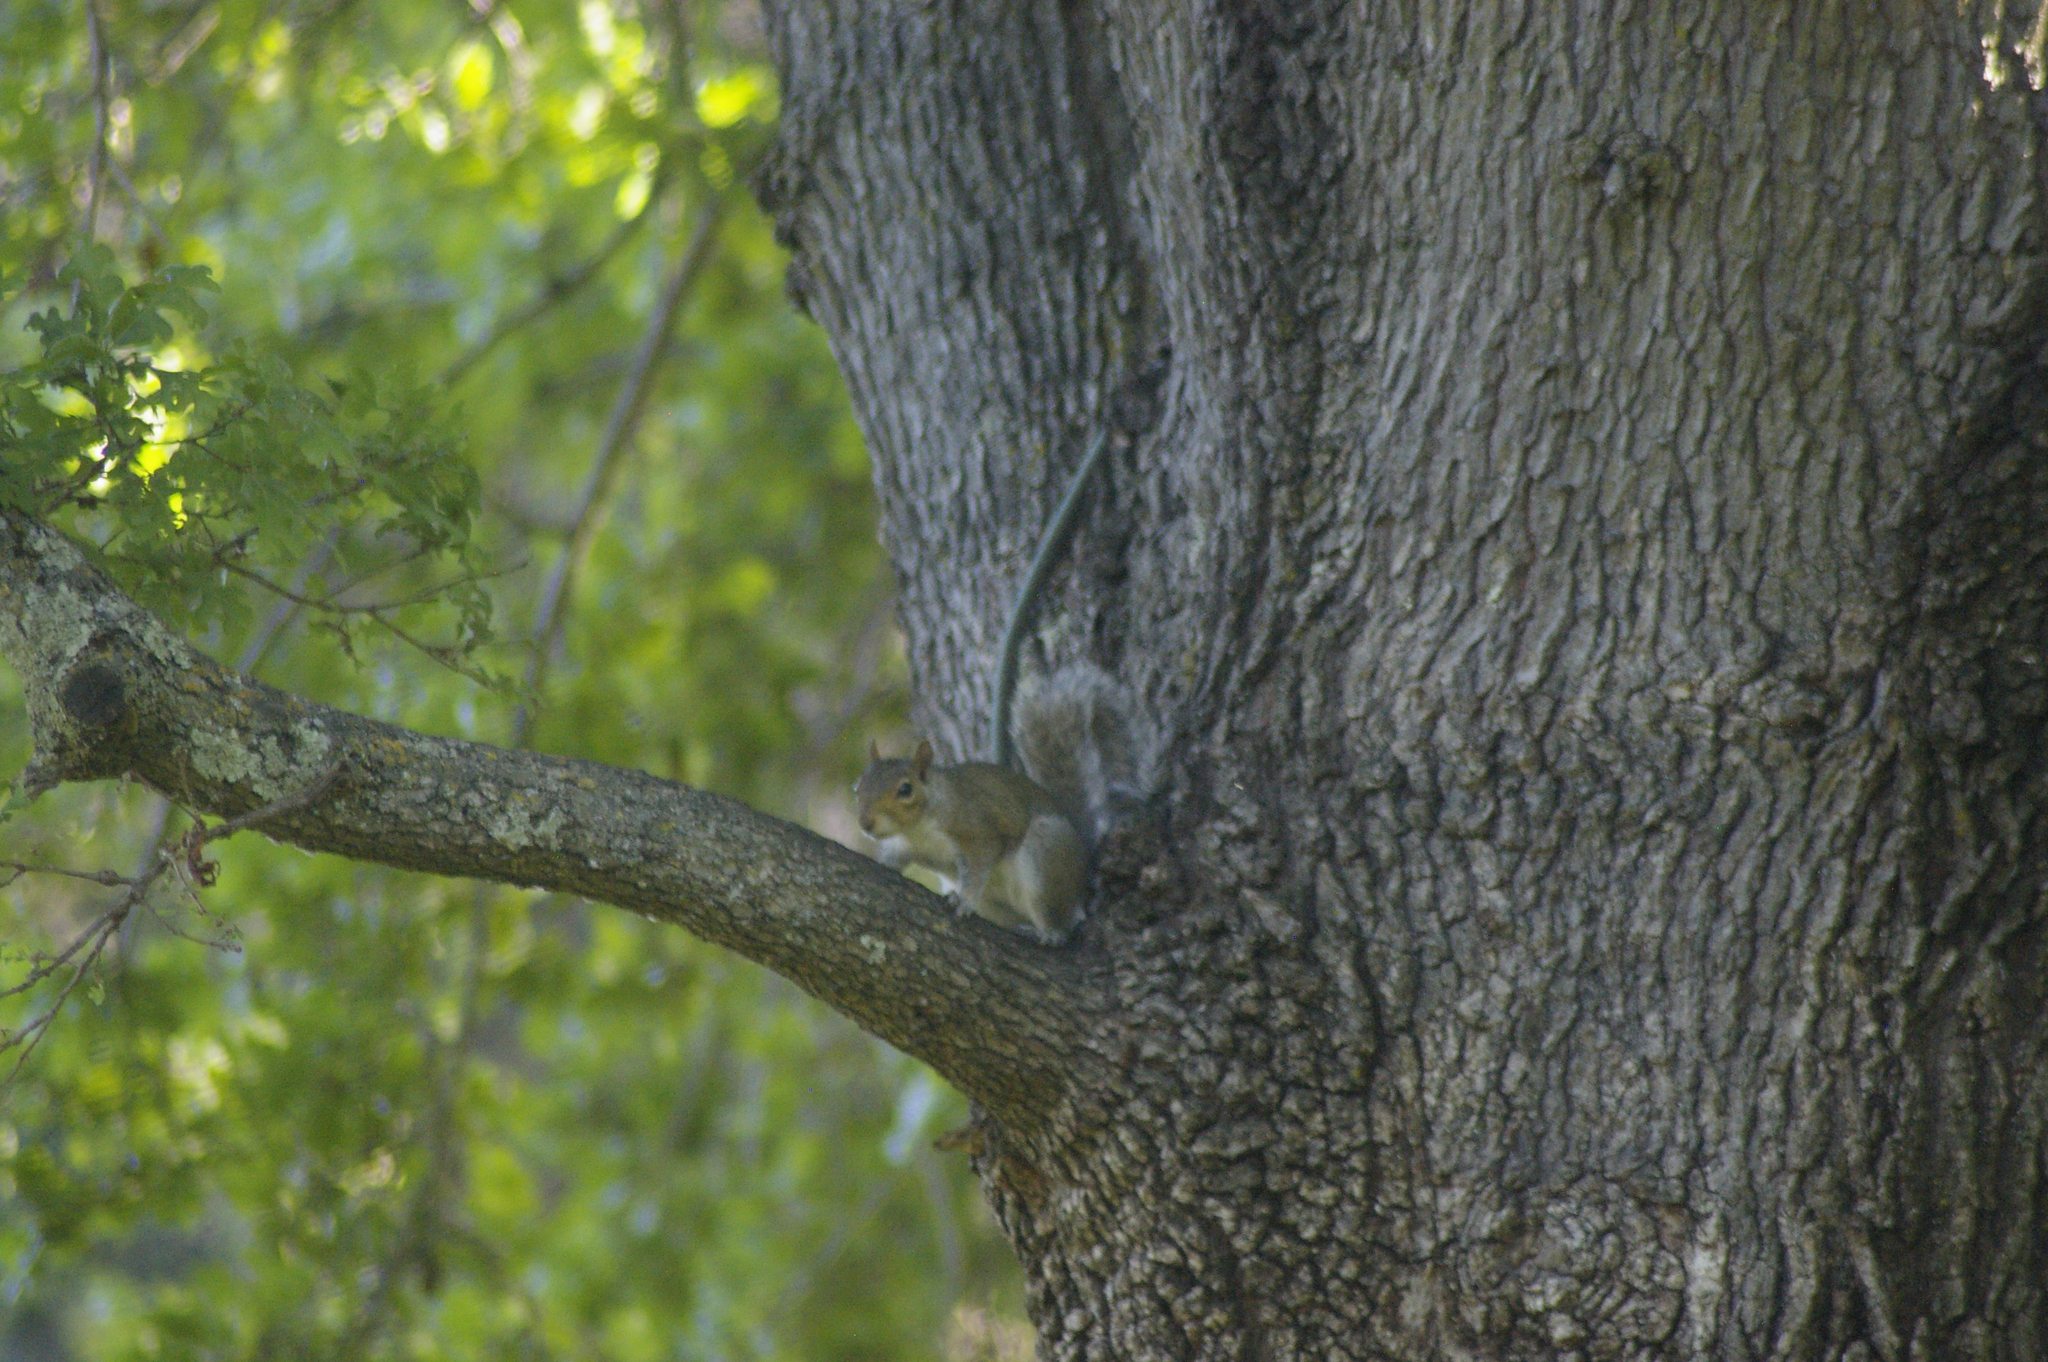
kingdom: Animalia
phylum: Chordata
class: Mammalia
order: Rodentia
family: Sciuridae
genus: Sciurus
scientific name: Sciurus carolinensis
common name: Eastern gray squirrel
